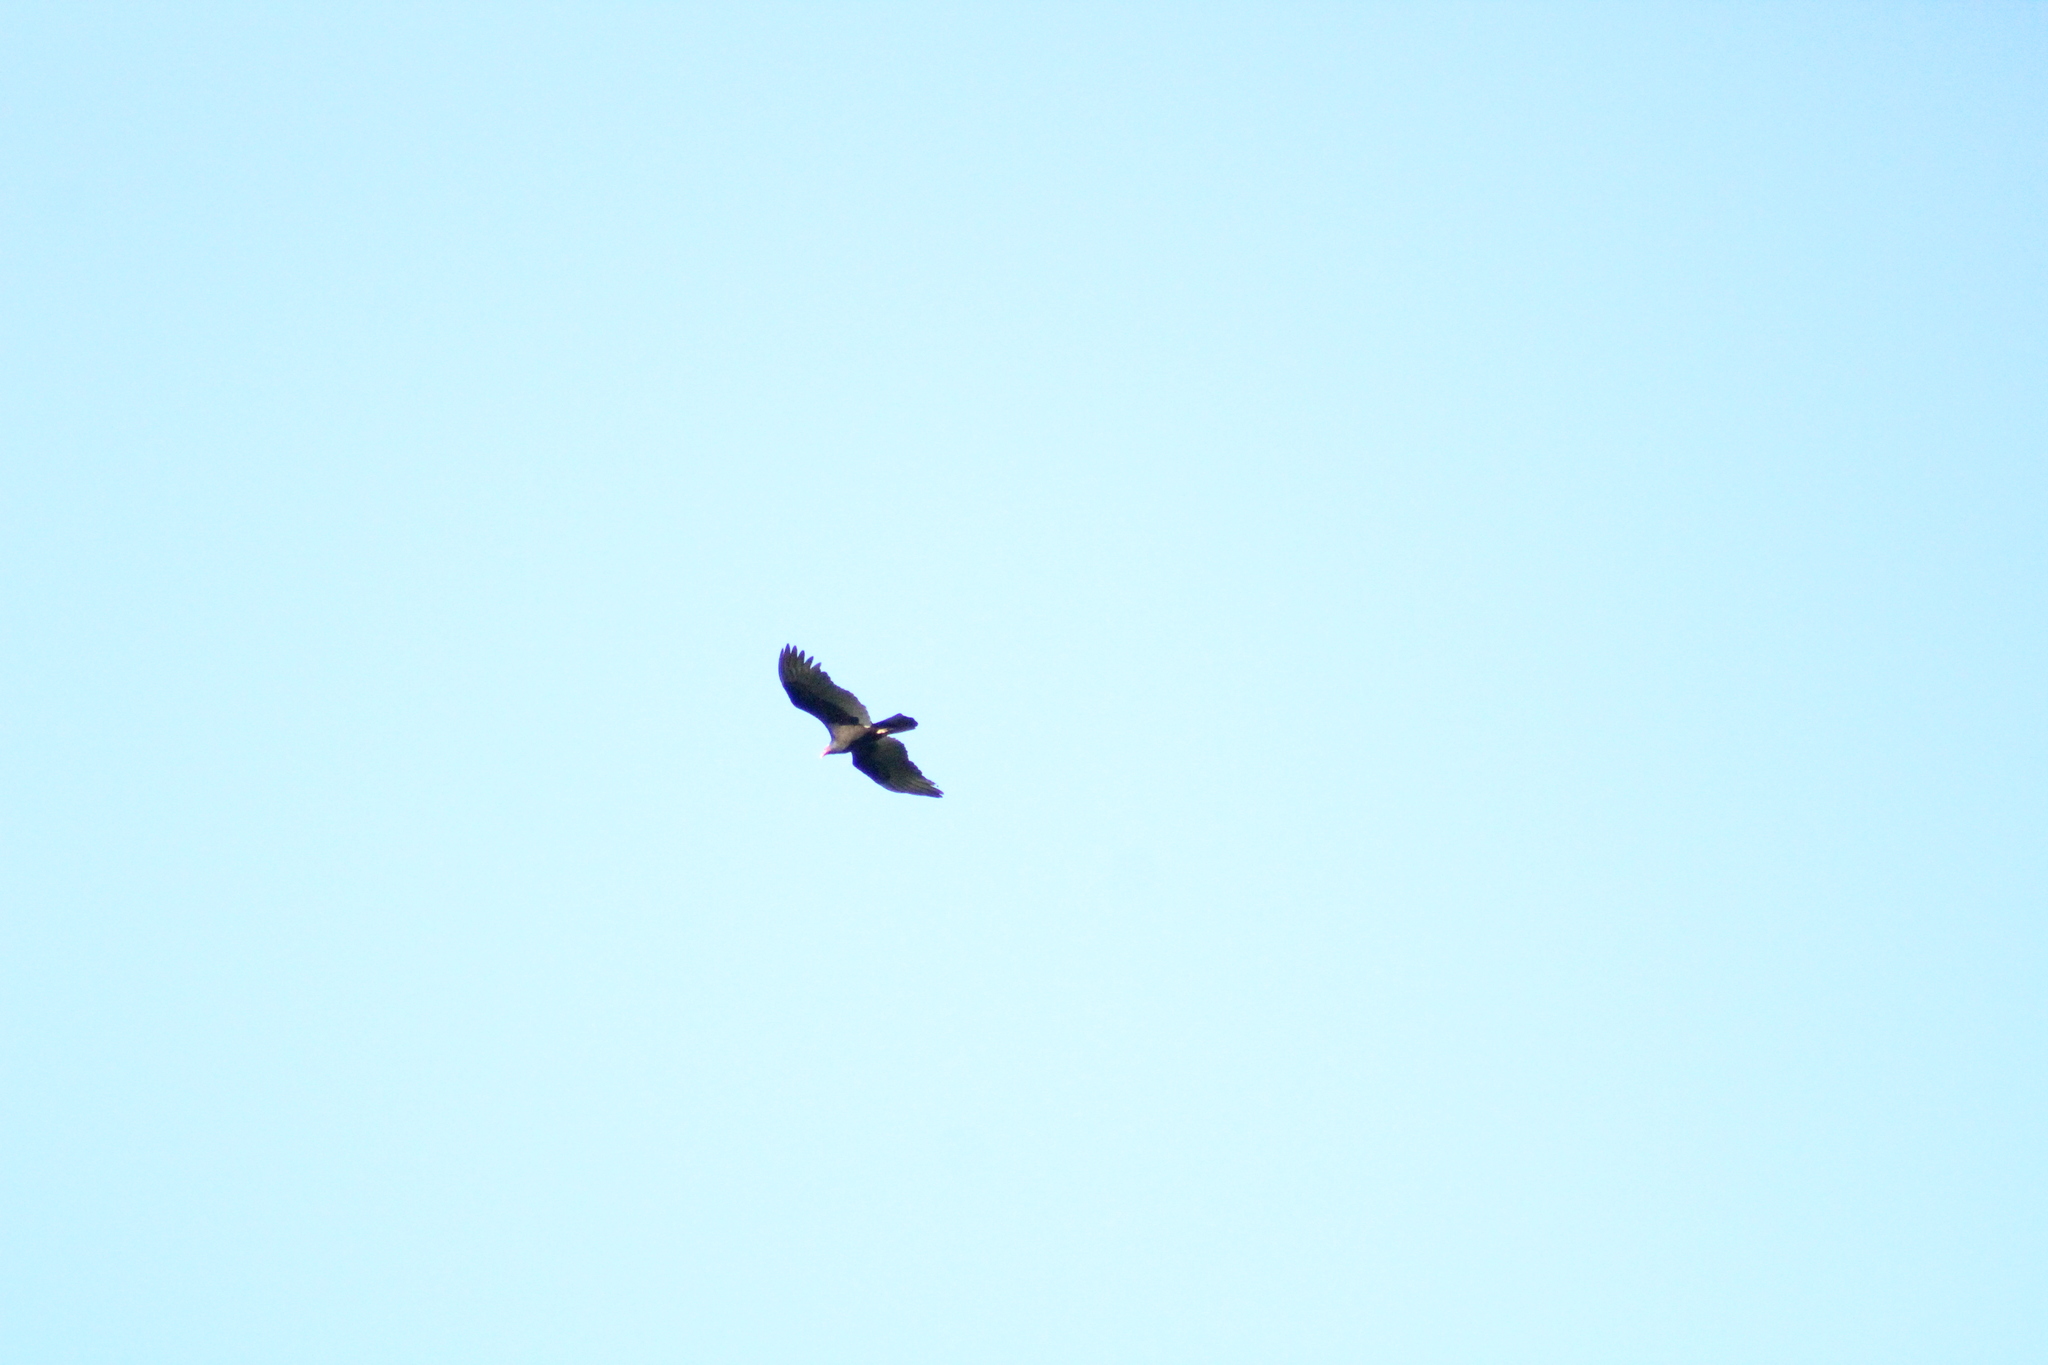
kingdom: Animalia
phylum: Chordata
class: Aves
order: Accipitriformes
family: Cathartidae
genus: Cathartes
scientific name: Cathartes aura
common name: Turkey vulture
